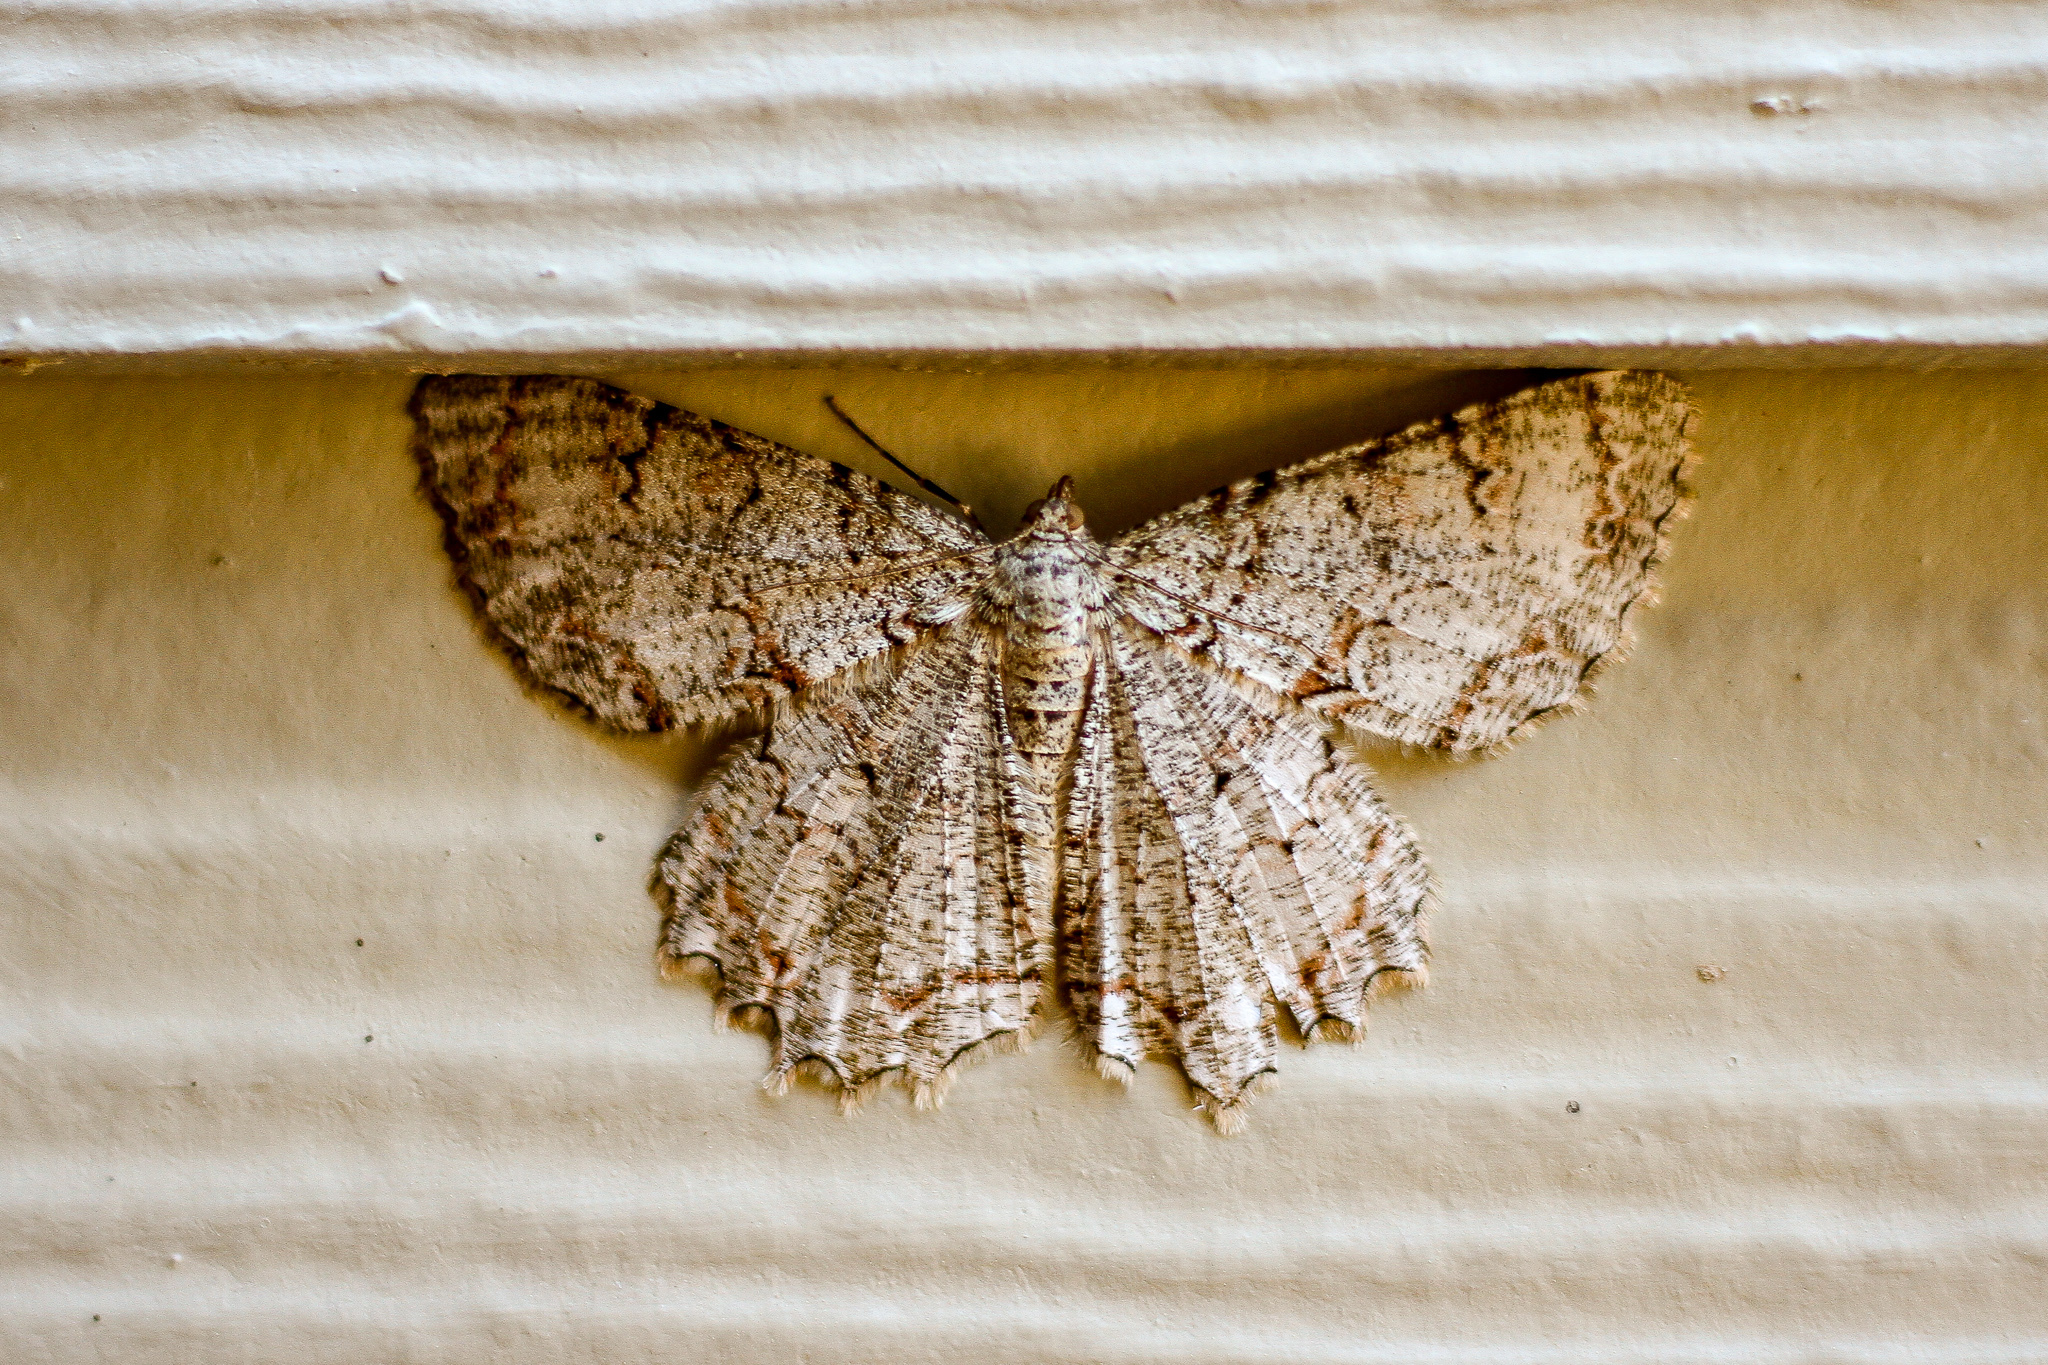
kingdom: Animalia
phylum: Arthropoda
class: Insecta
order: Lepidoptera
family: Geometridae
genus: Epimecis
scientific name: Epimecis hortaria
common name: Tulip-tree beauty
